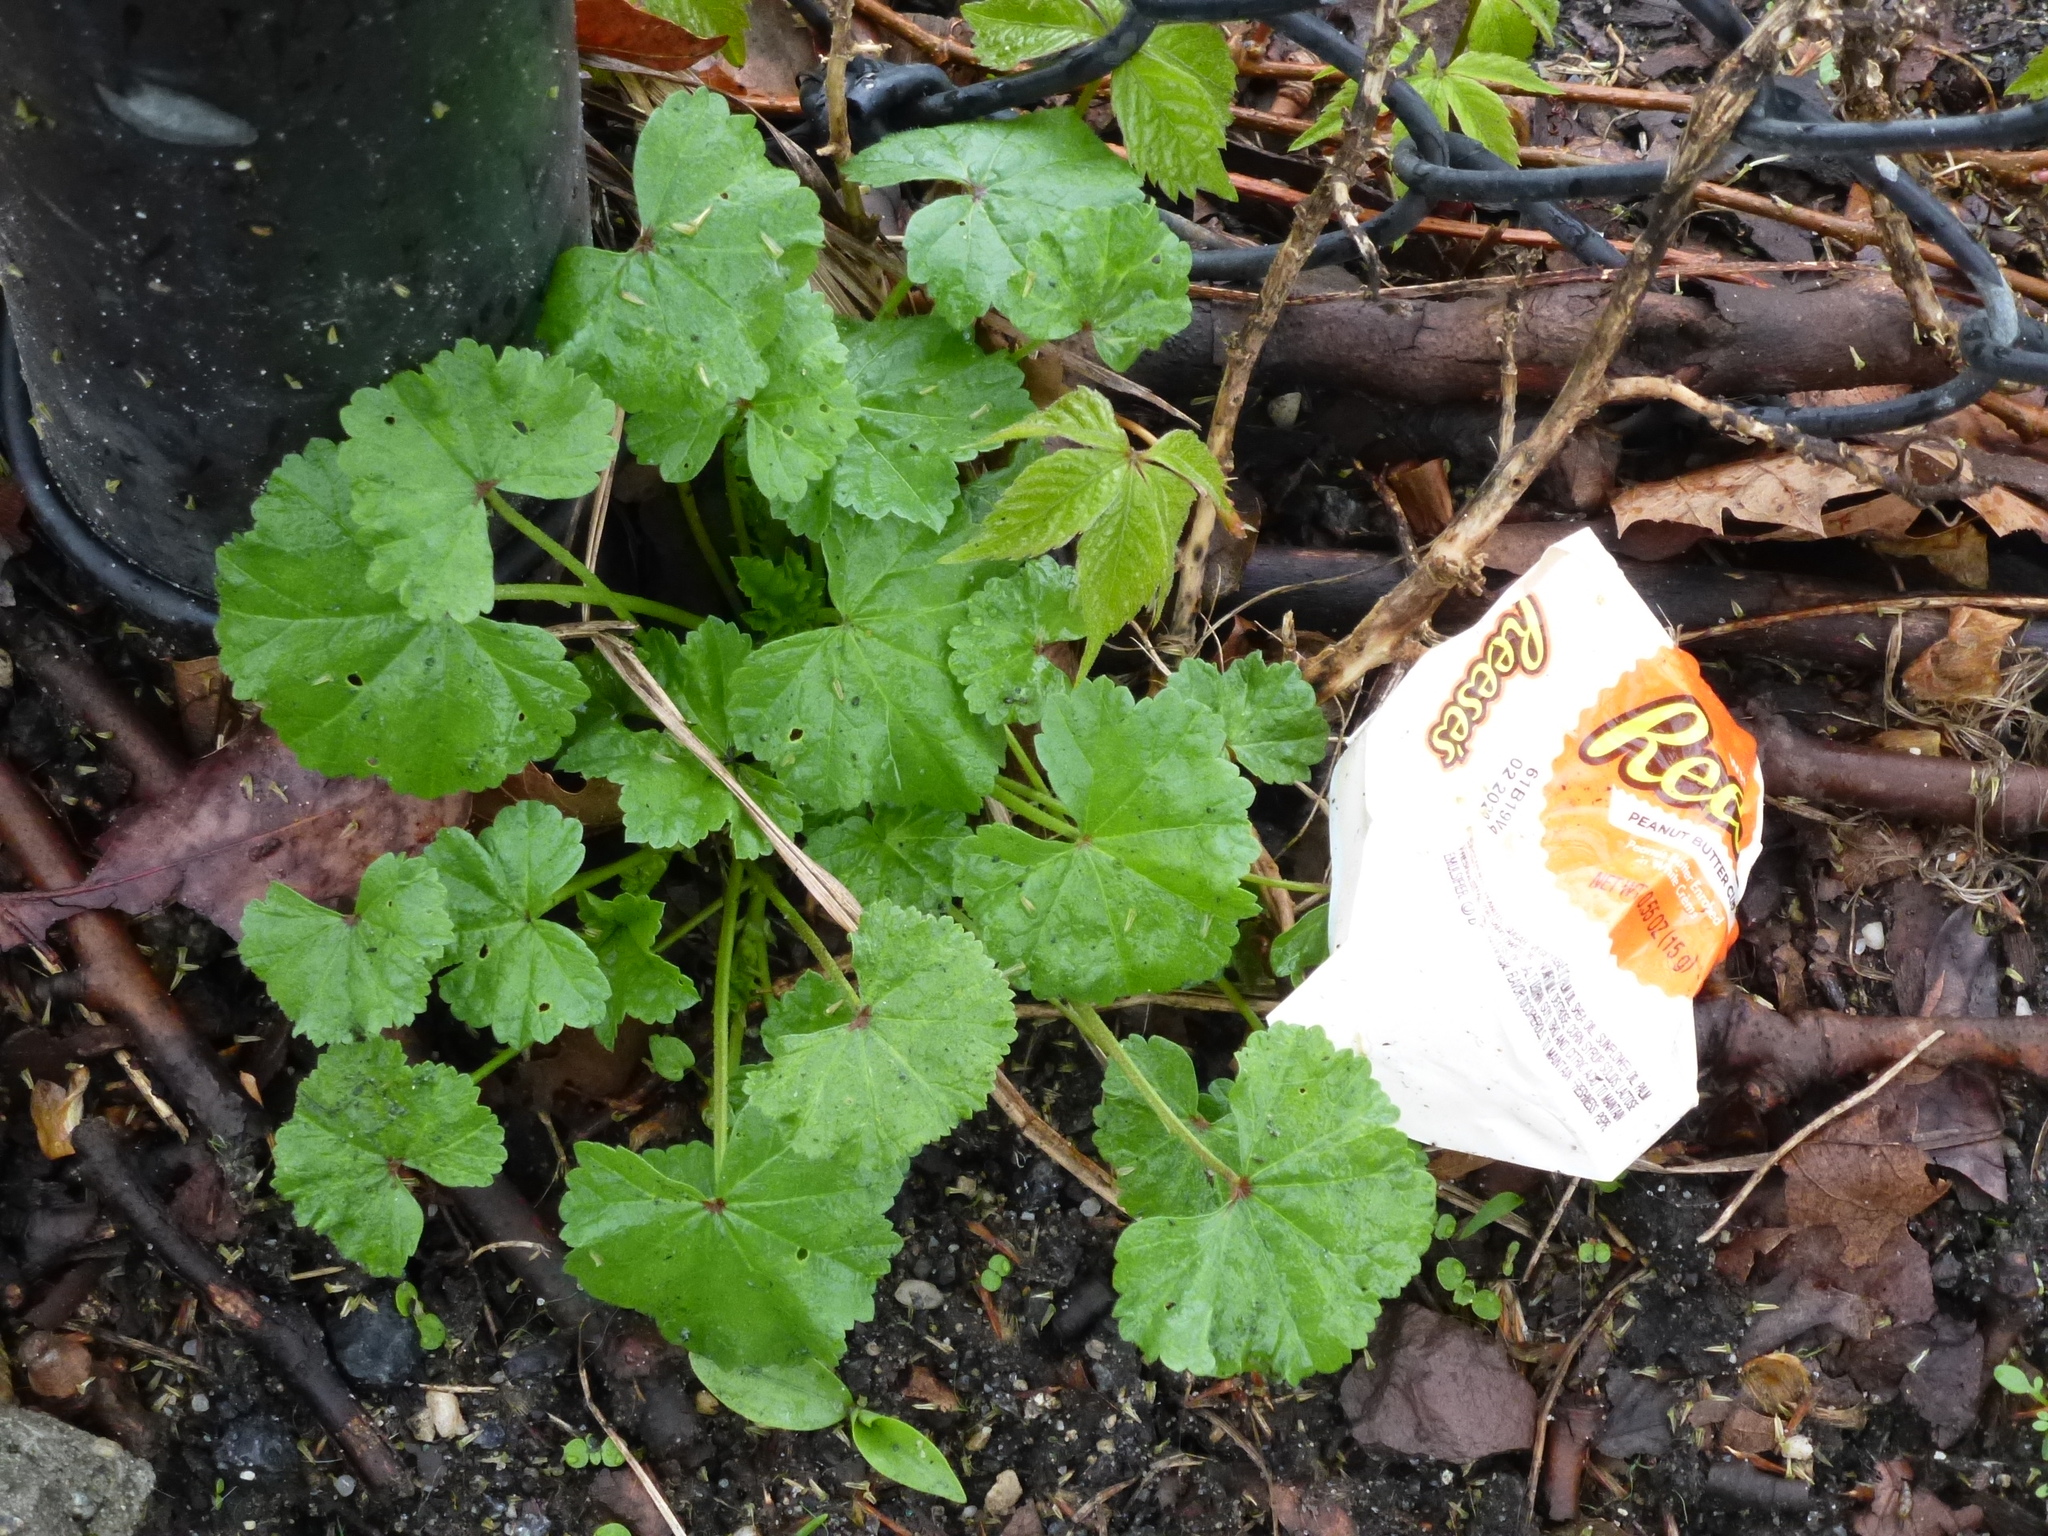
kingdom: Plantae
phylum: Tracheophyta
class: Magnoliopsida
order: Malvales
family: Malvaceae
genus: Malva
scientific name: Malva neglecta
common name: Common mallow
